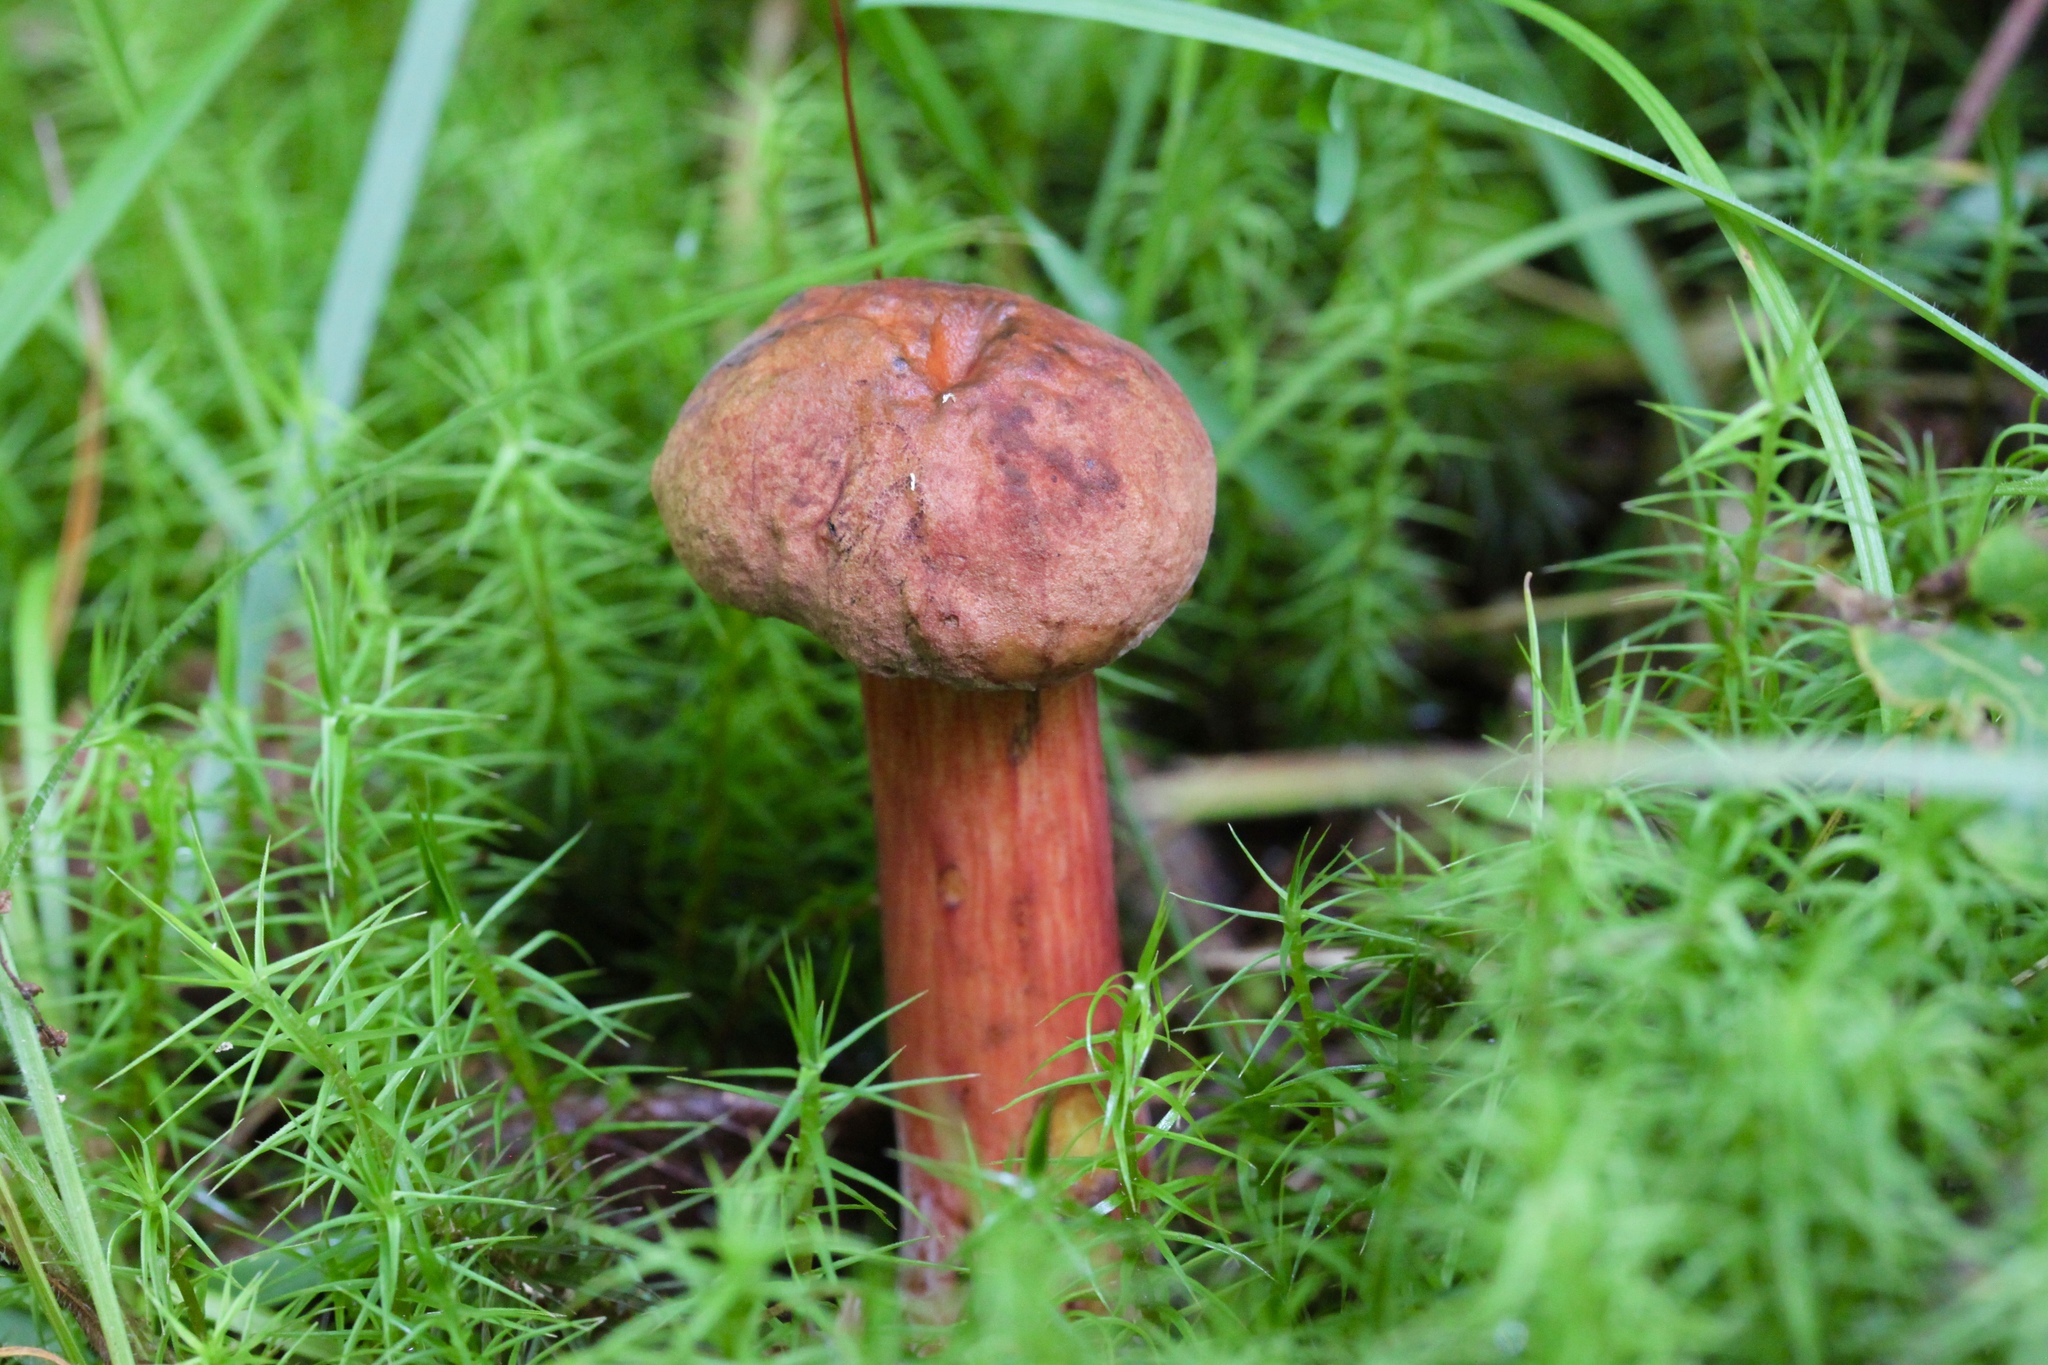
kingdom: Fungi
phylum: Basidiomycota
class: Agaricomycetes
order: Boletales
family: Boletaceae
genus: Boletus
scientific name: Boletus subvelutipes
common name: Red-mouth bolete
